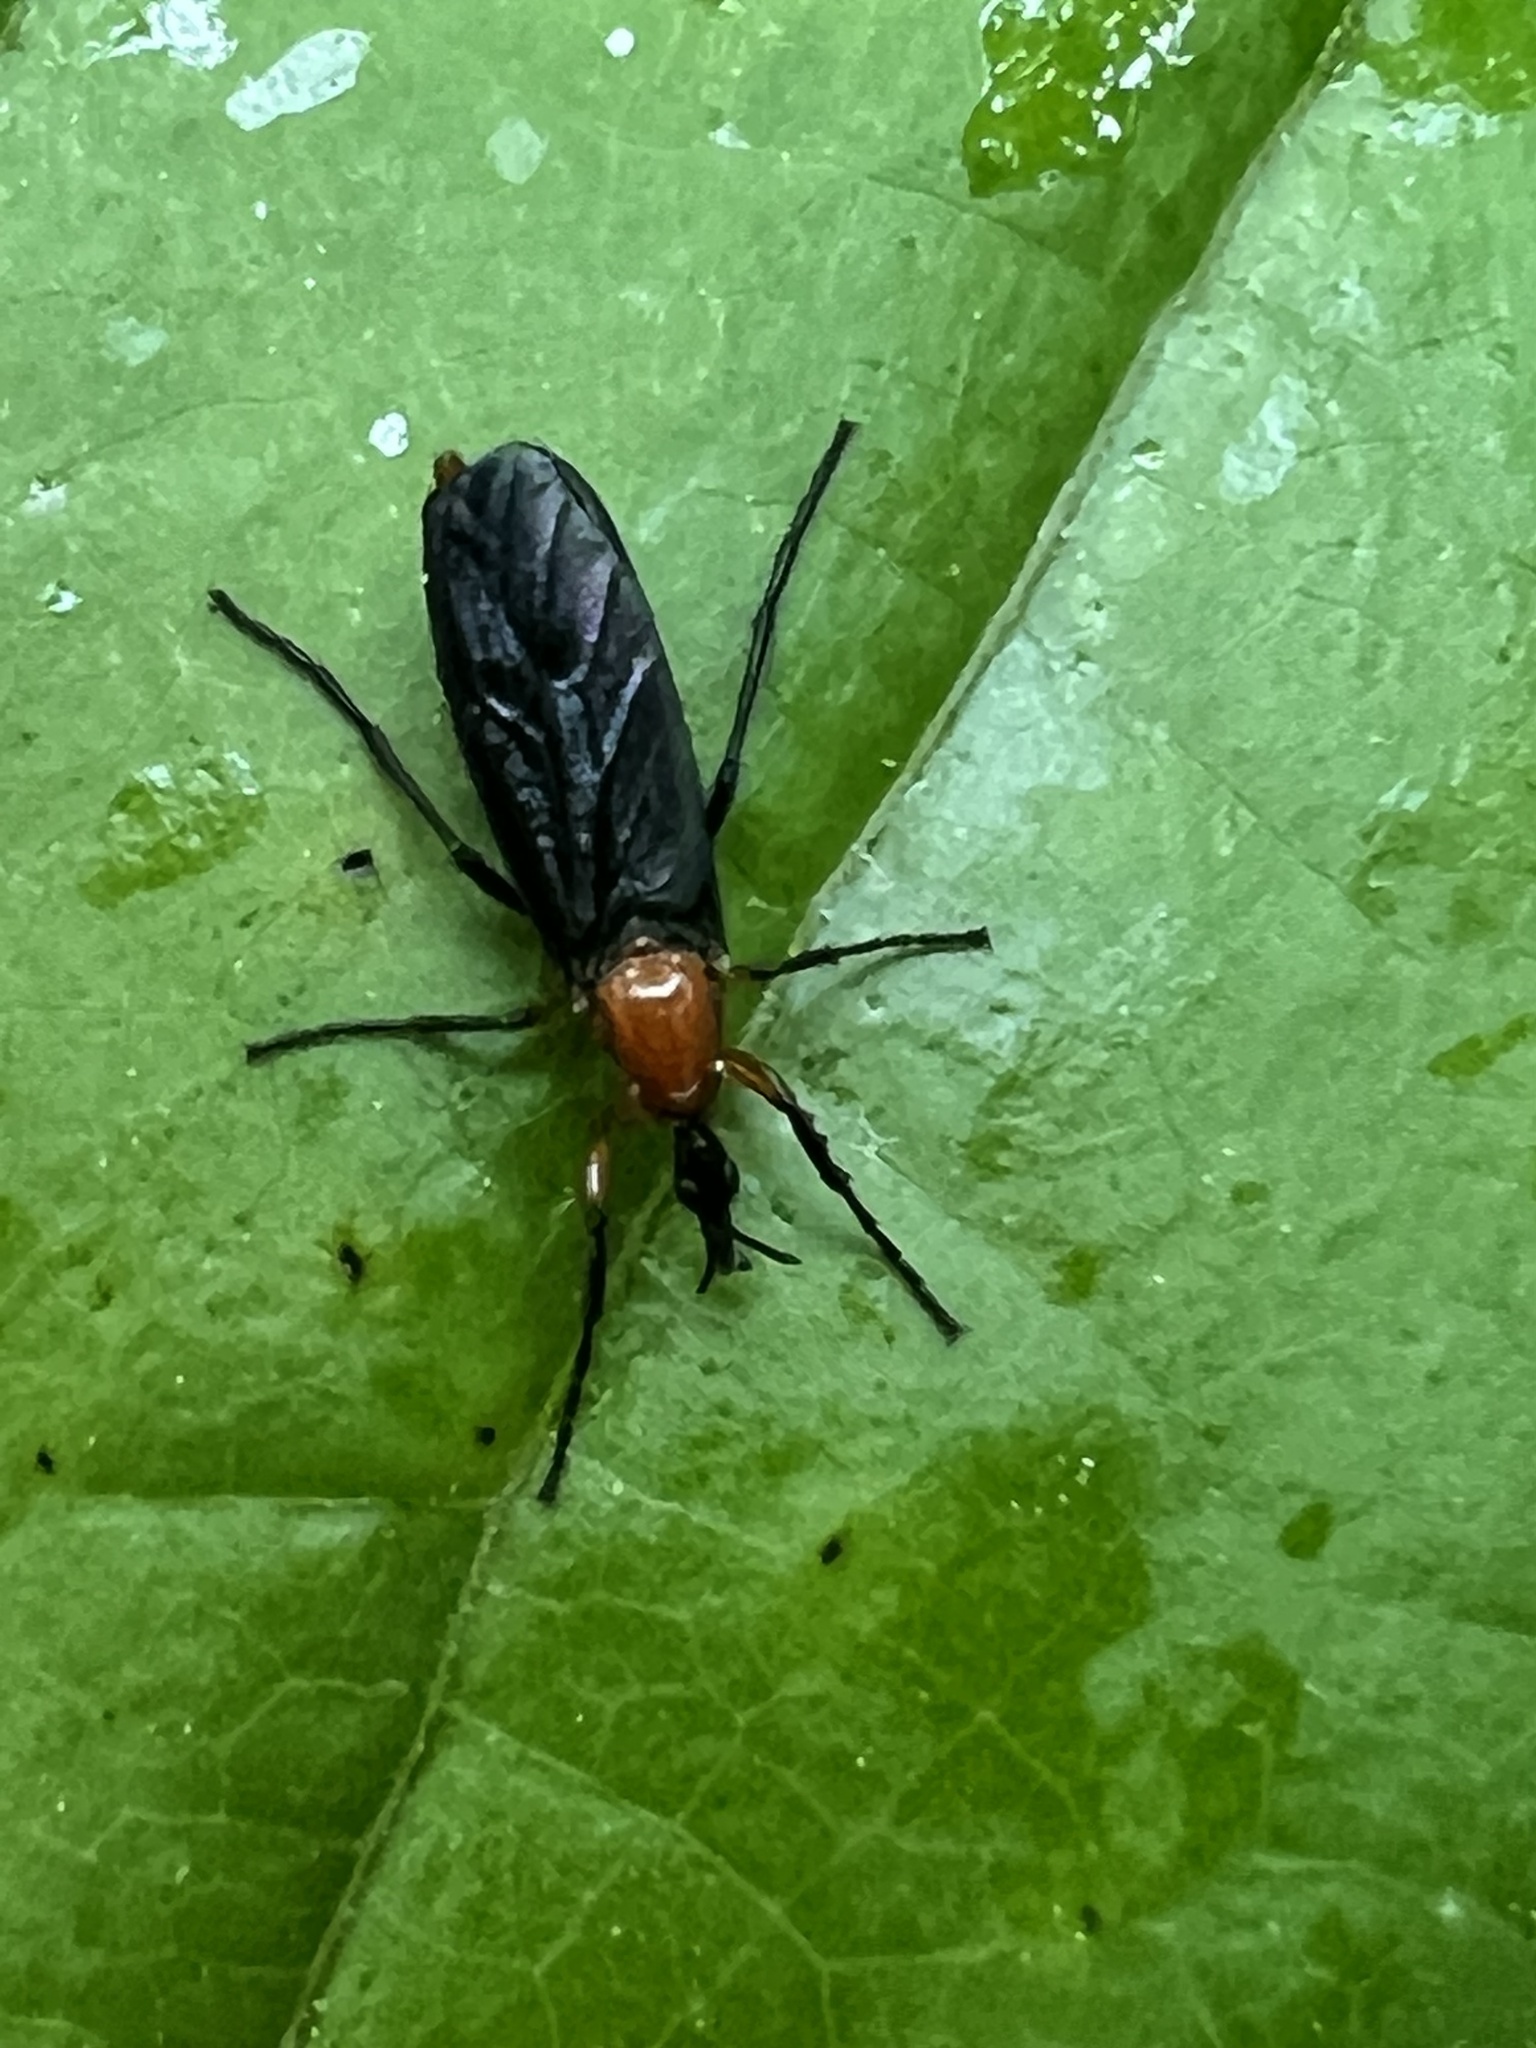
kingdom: Animalia
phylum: Arthropoda
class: Insecta
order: Diptera
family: Bibionidae
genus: Dilophus
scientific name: Dilophus spinipes
